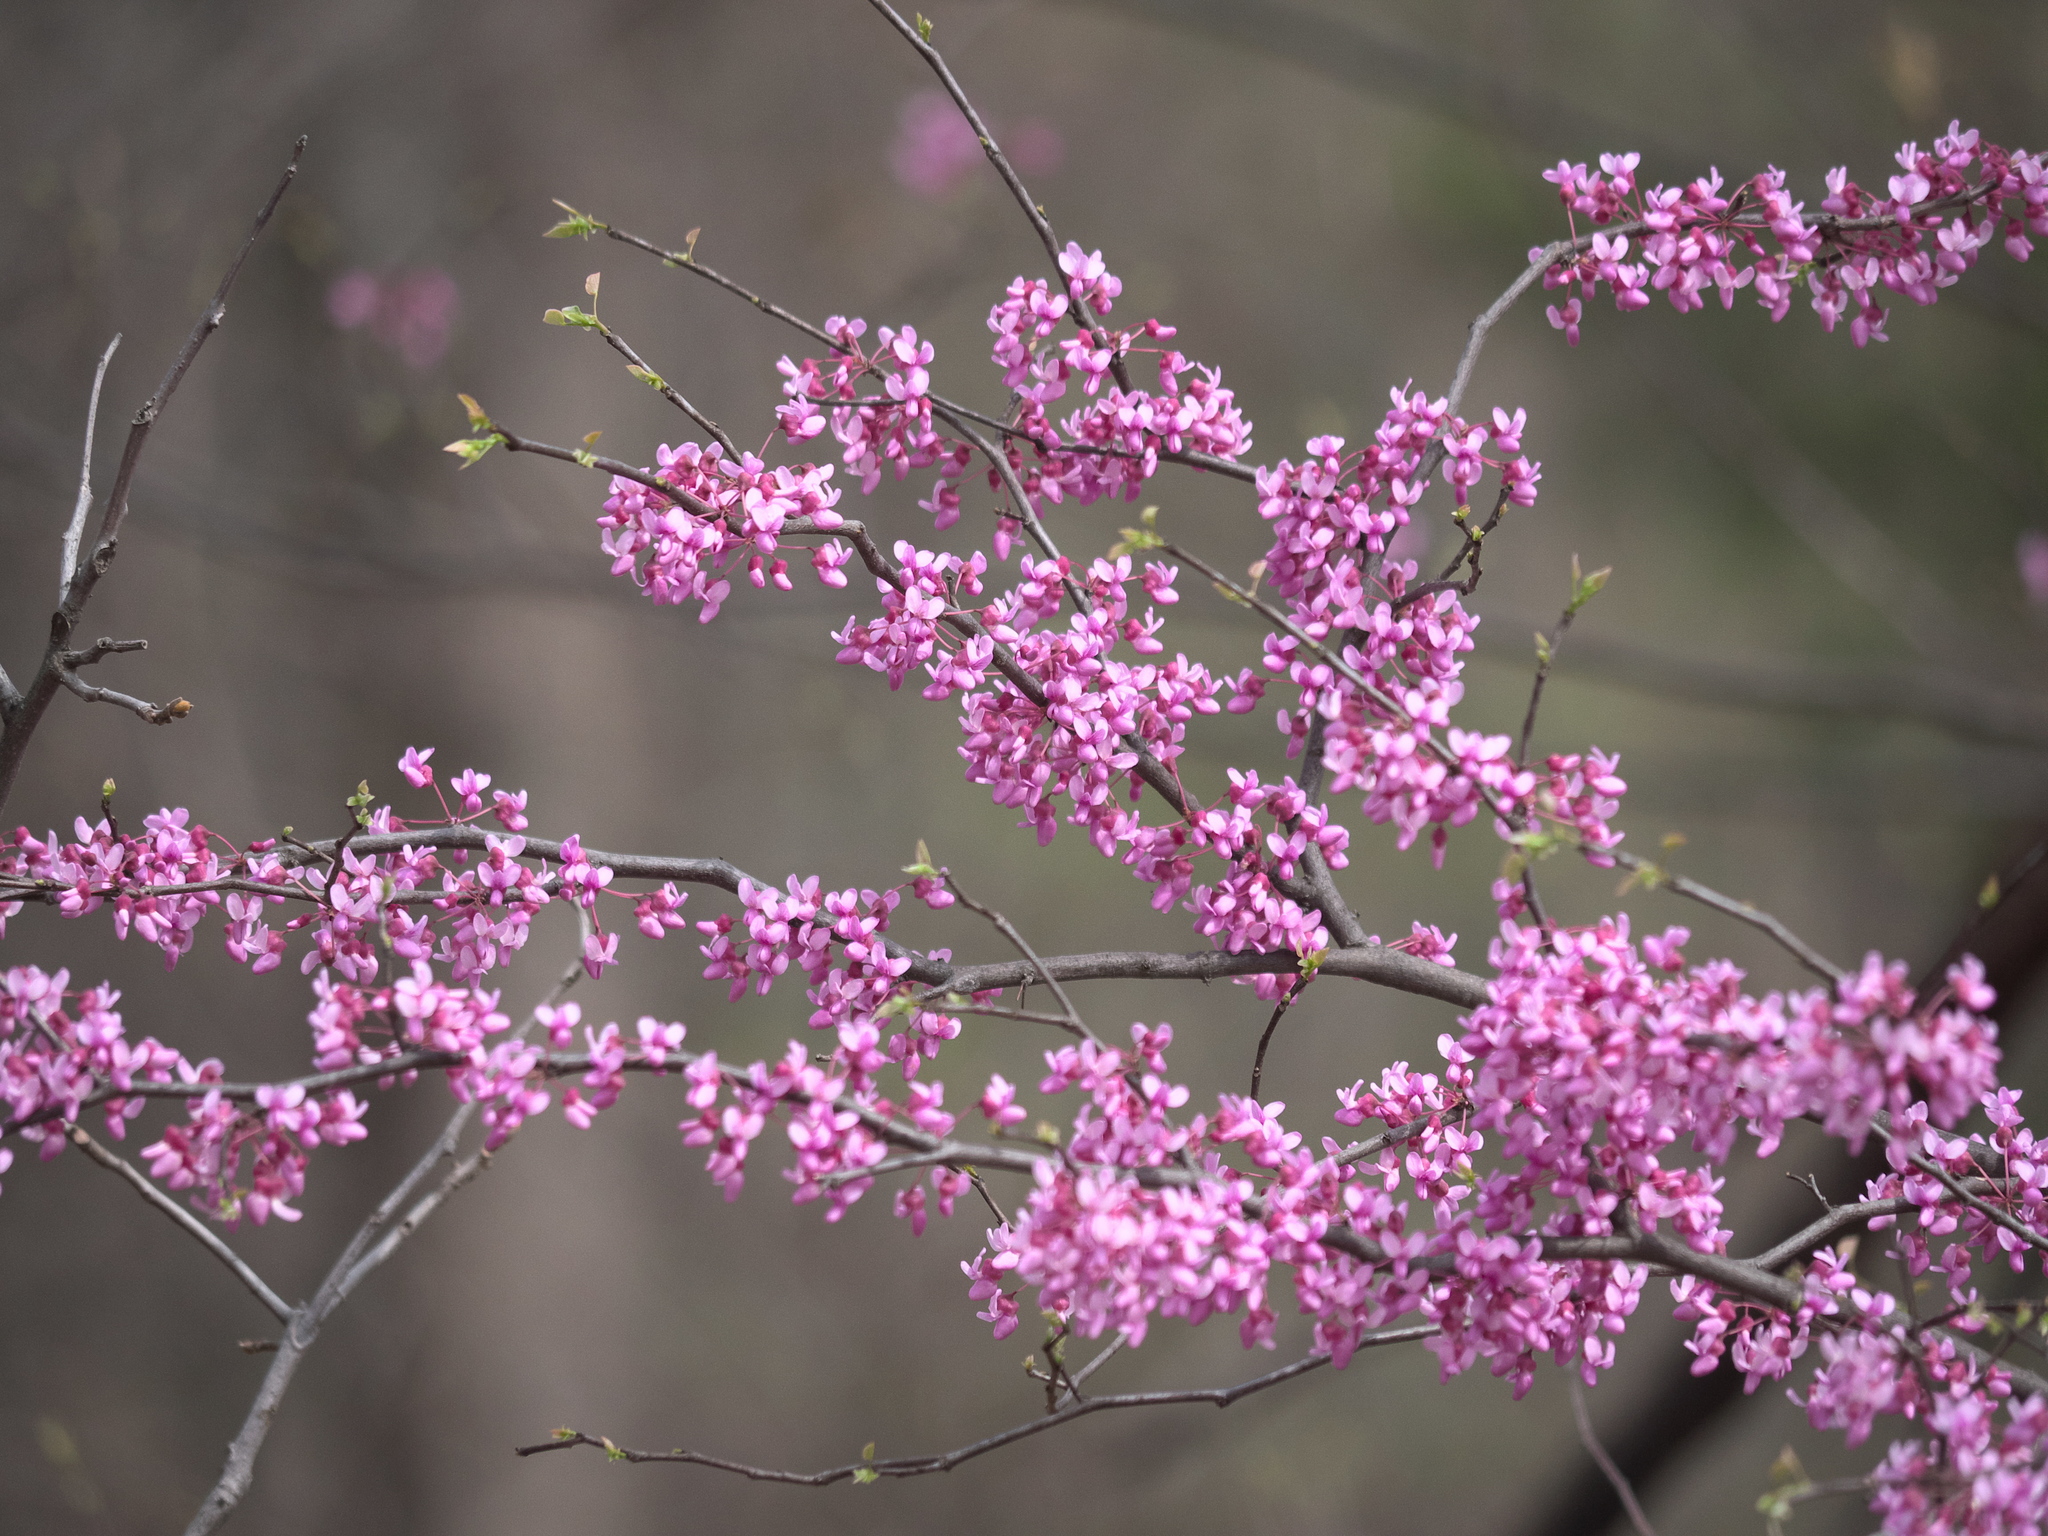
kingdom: Plantae
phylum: Tracheophyta
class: Magnoliopsida
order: Fabales
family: Fabaceae
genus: Cercis
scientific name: Cercis canadensis
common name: Eastern redbud
